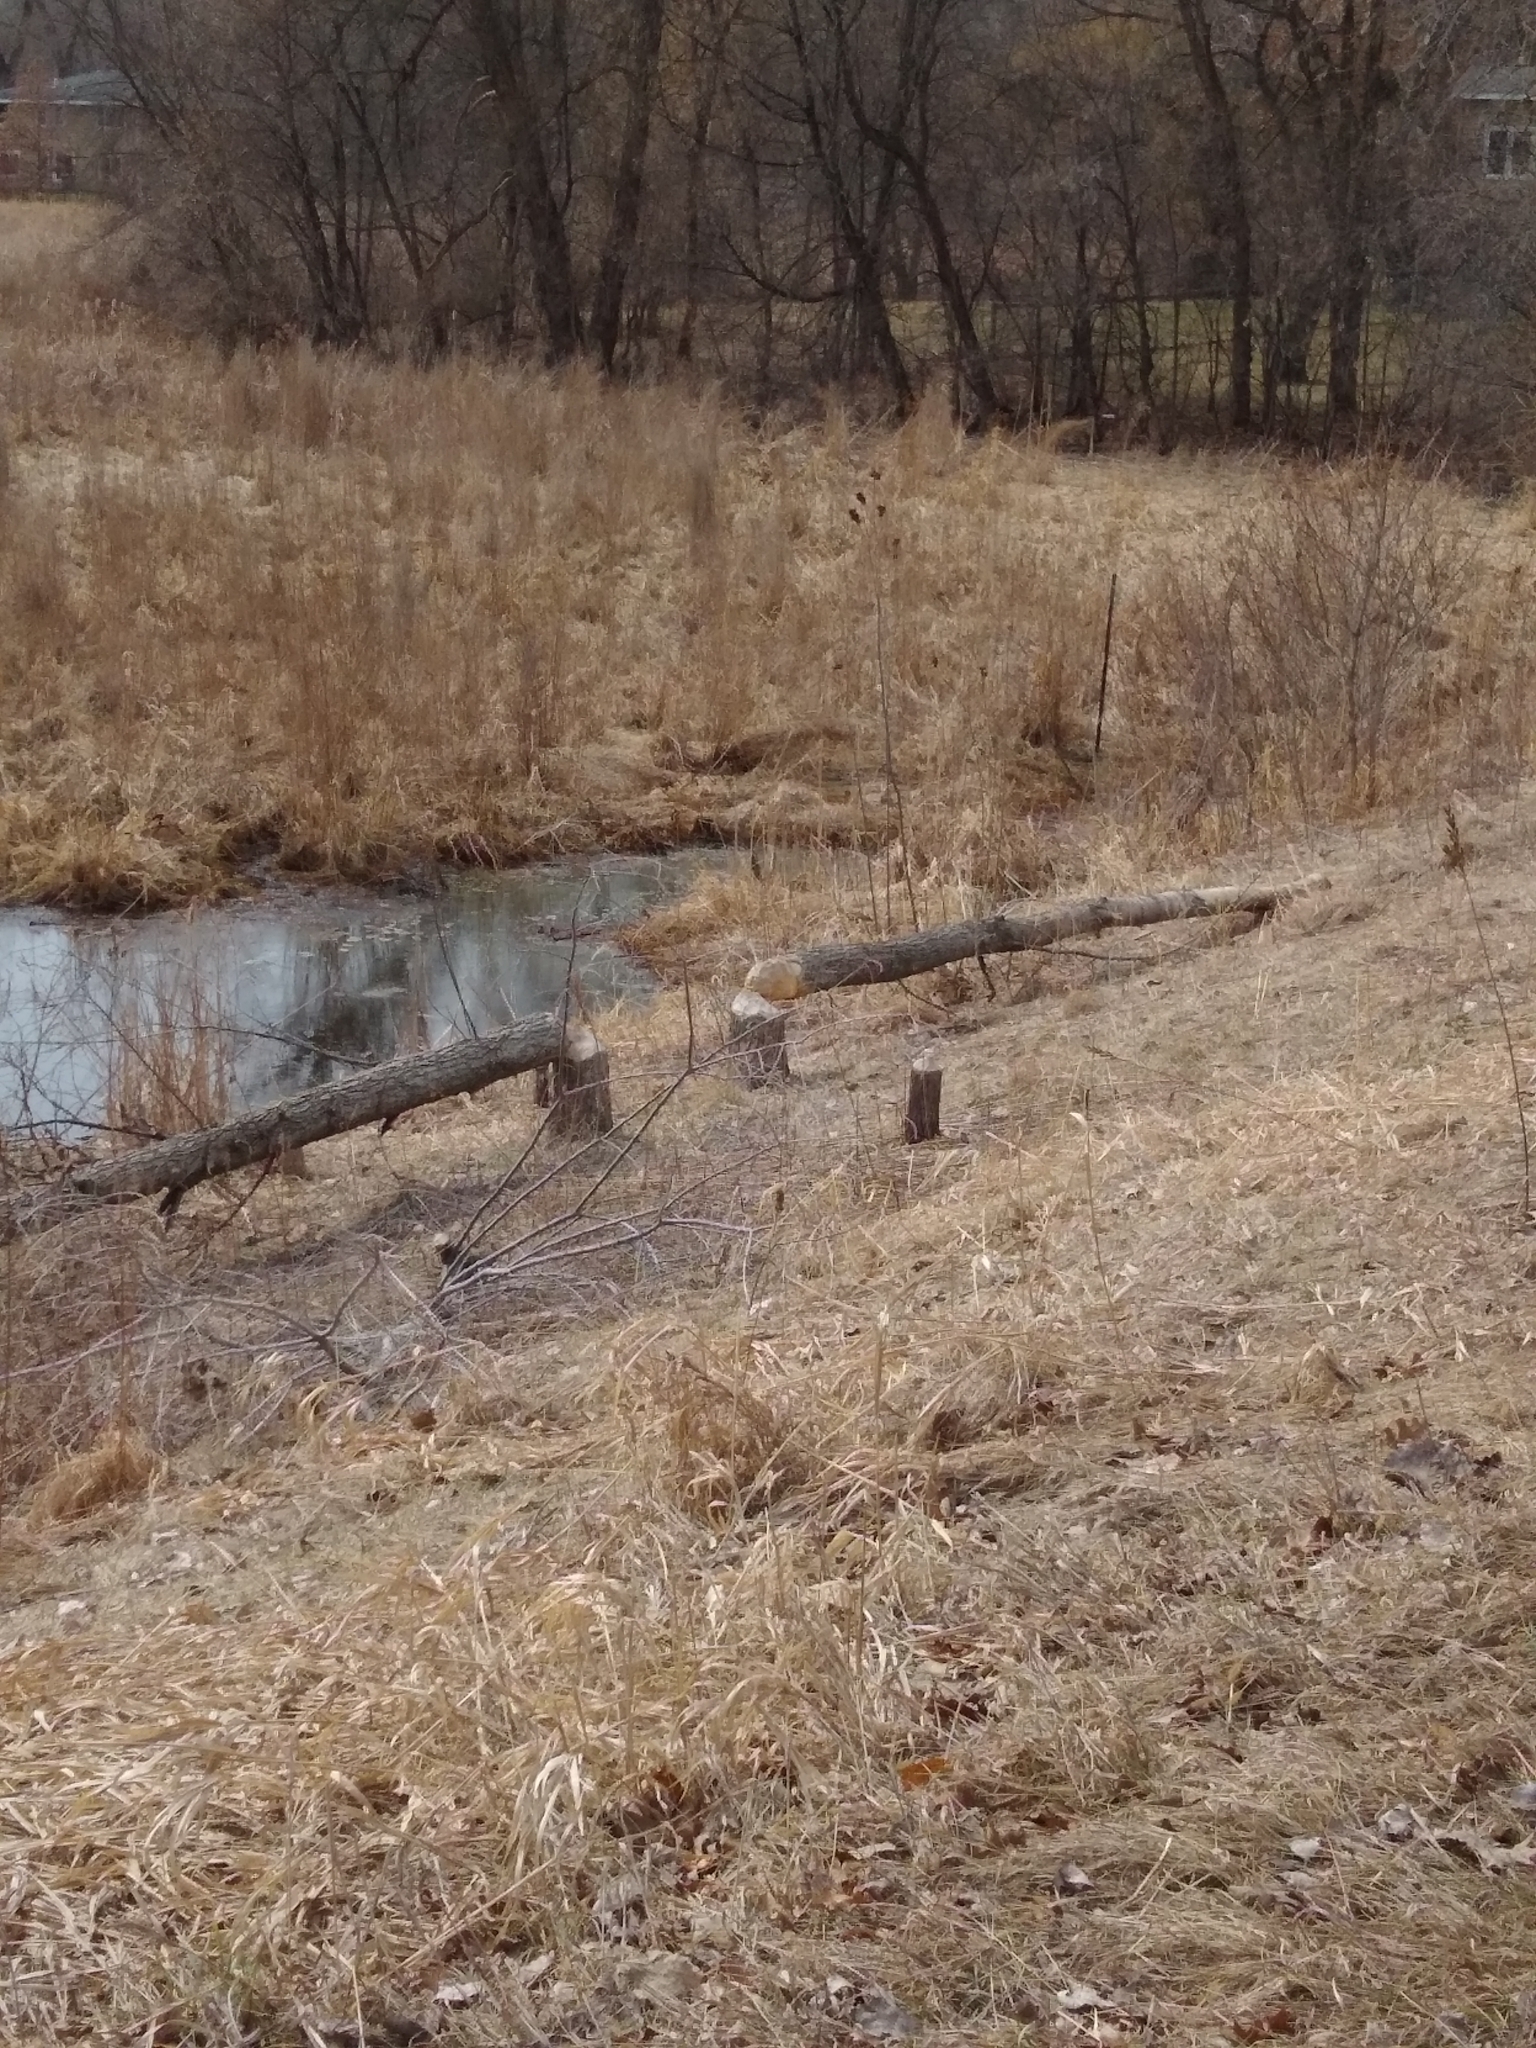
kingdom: Animalia
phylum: Chordata
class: Mammalia
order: Rodentia
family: Castoridae
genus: Castor
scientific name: Castor canadensis
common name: American beaver
